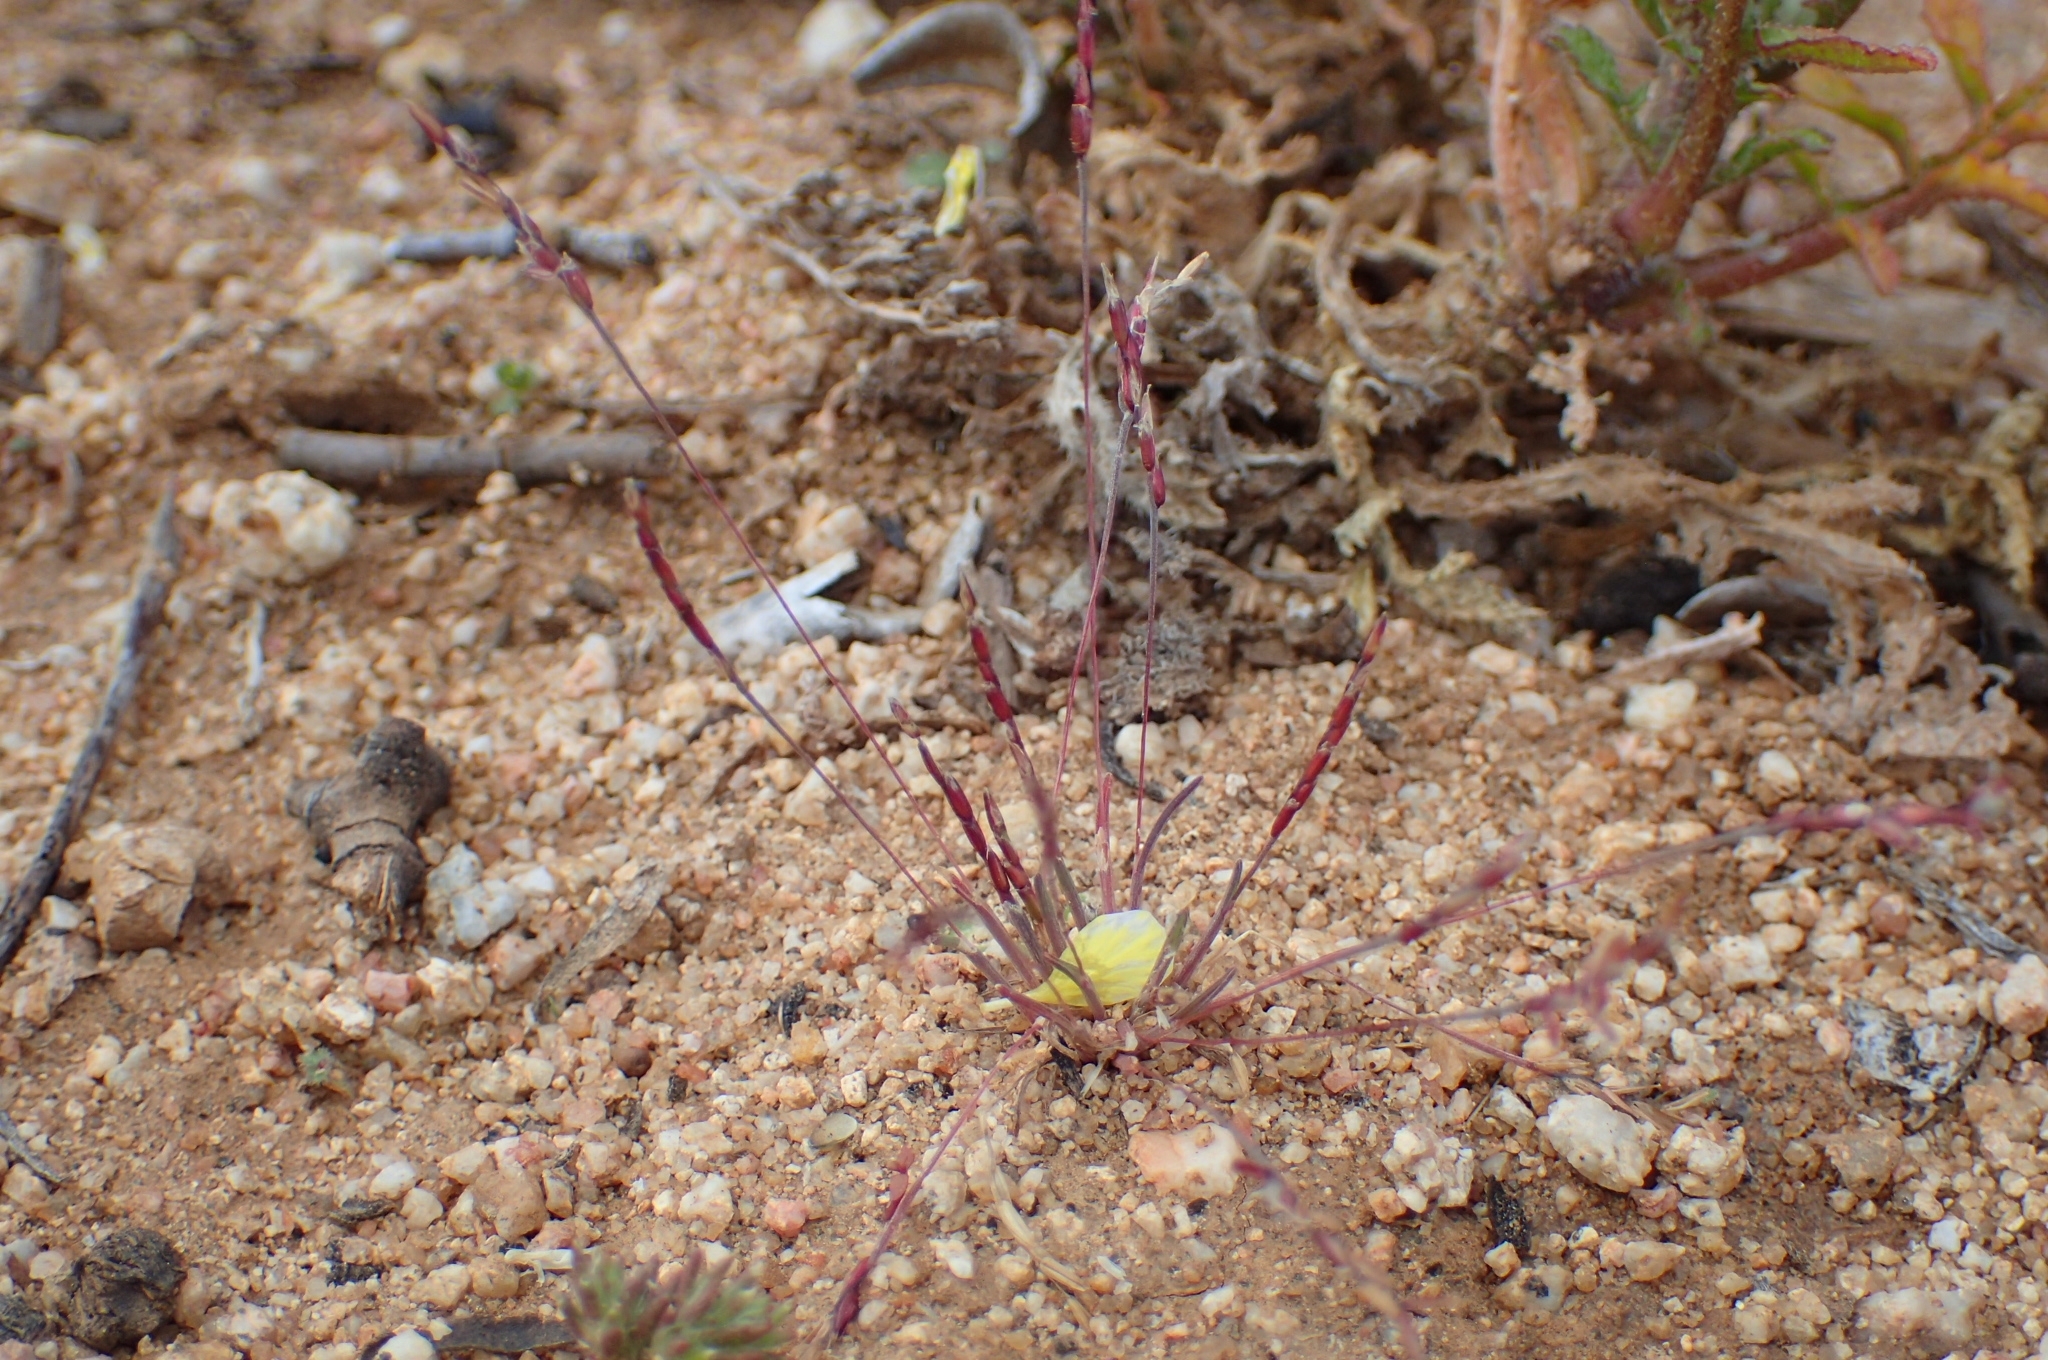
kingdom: Plantae
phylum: Tracheophyta
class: Liliopsida
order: Poales
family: Poaceae
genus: Mibora
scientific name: Mibora minima
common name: Early sand-grass
